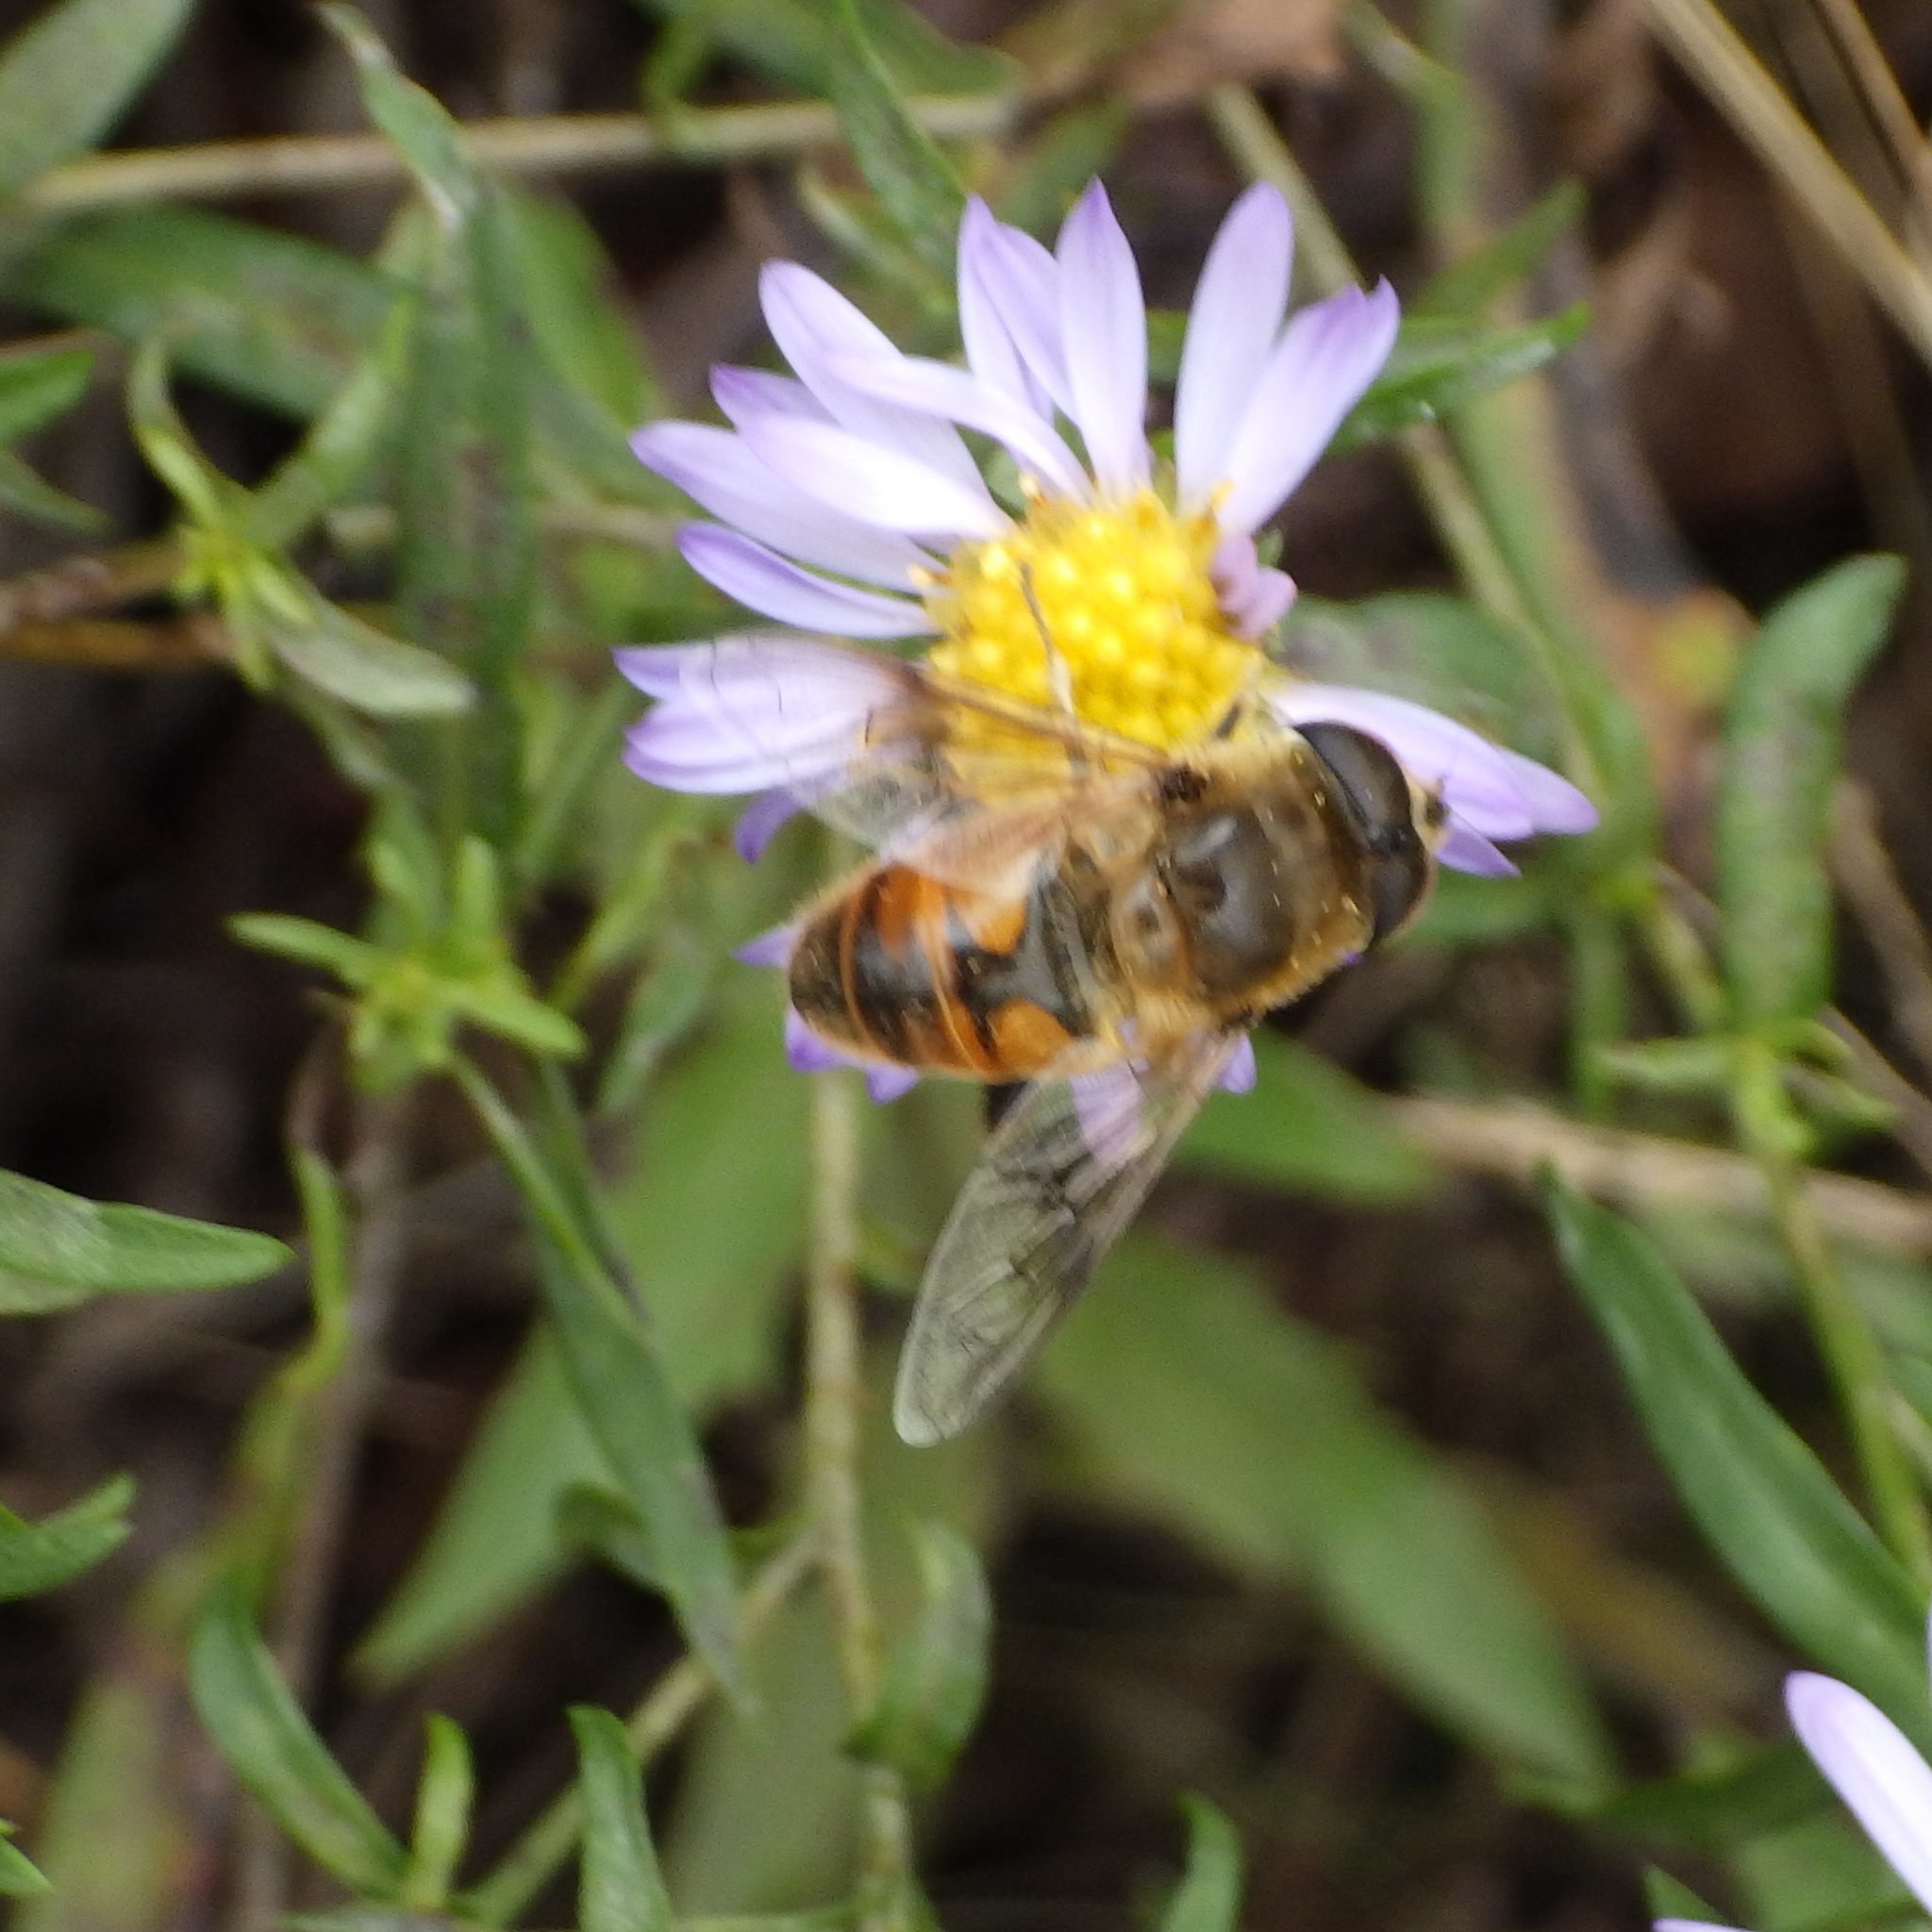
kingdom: Animalia
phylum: Arthropoda
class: Insecta
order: Diptera
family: Syrphidae
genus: Eristalis
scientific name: Eristalis tenax
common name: Drone fly
